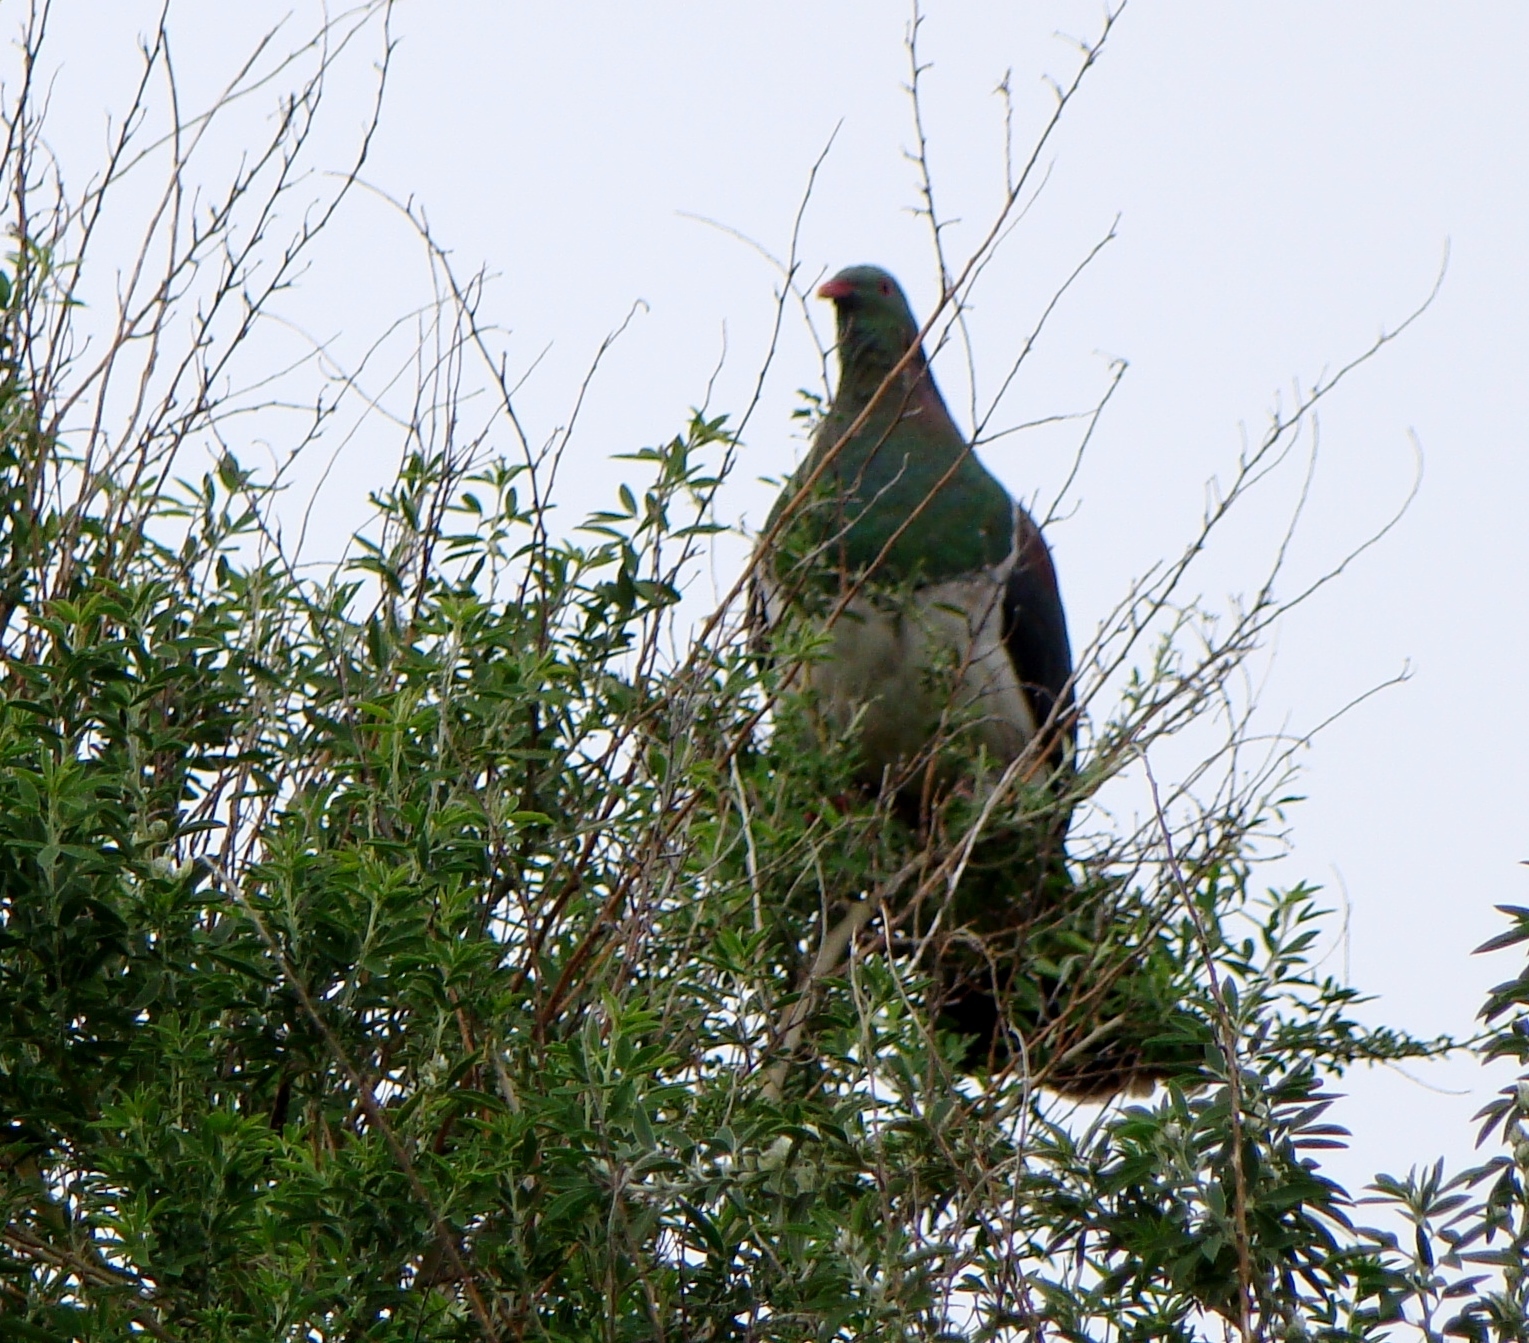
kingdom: Animalia
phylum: Chordata
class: Aves
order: Columbiformes
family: Columbidae
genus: Hemiphaga
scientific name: Hemiphaga novaeseelandiae
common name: New zealand pigeon
